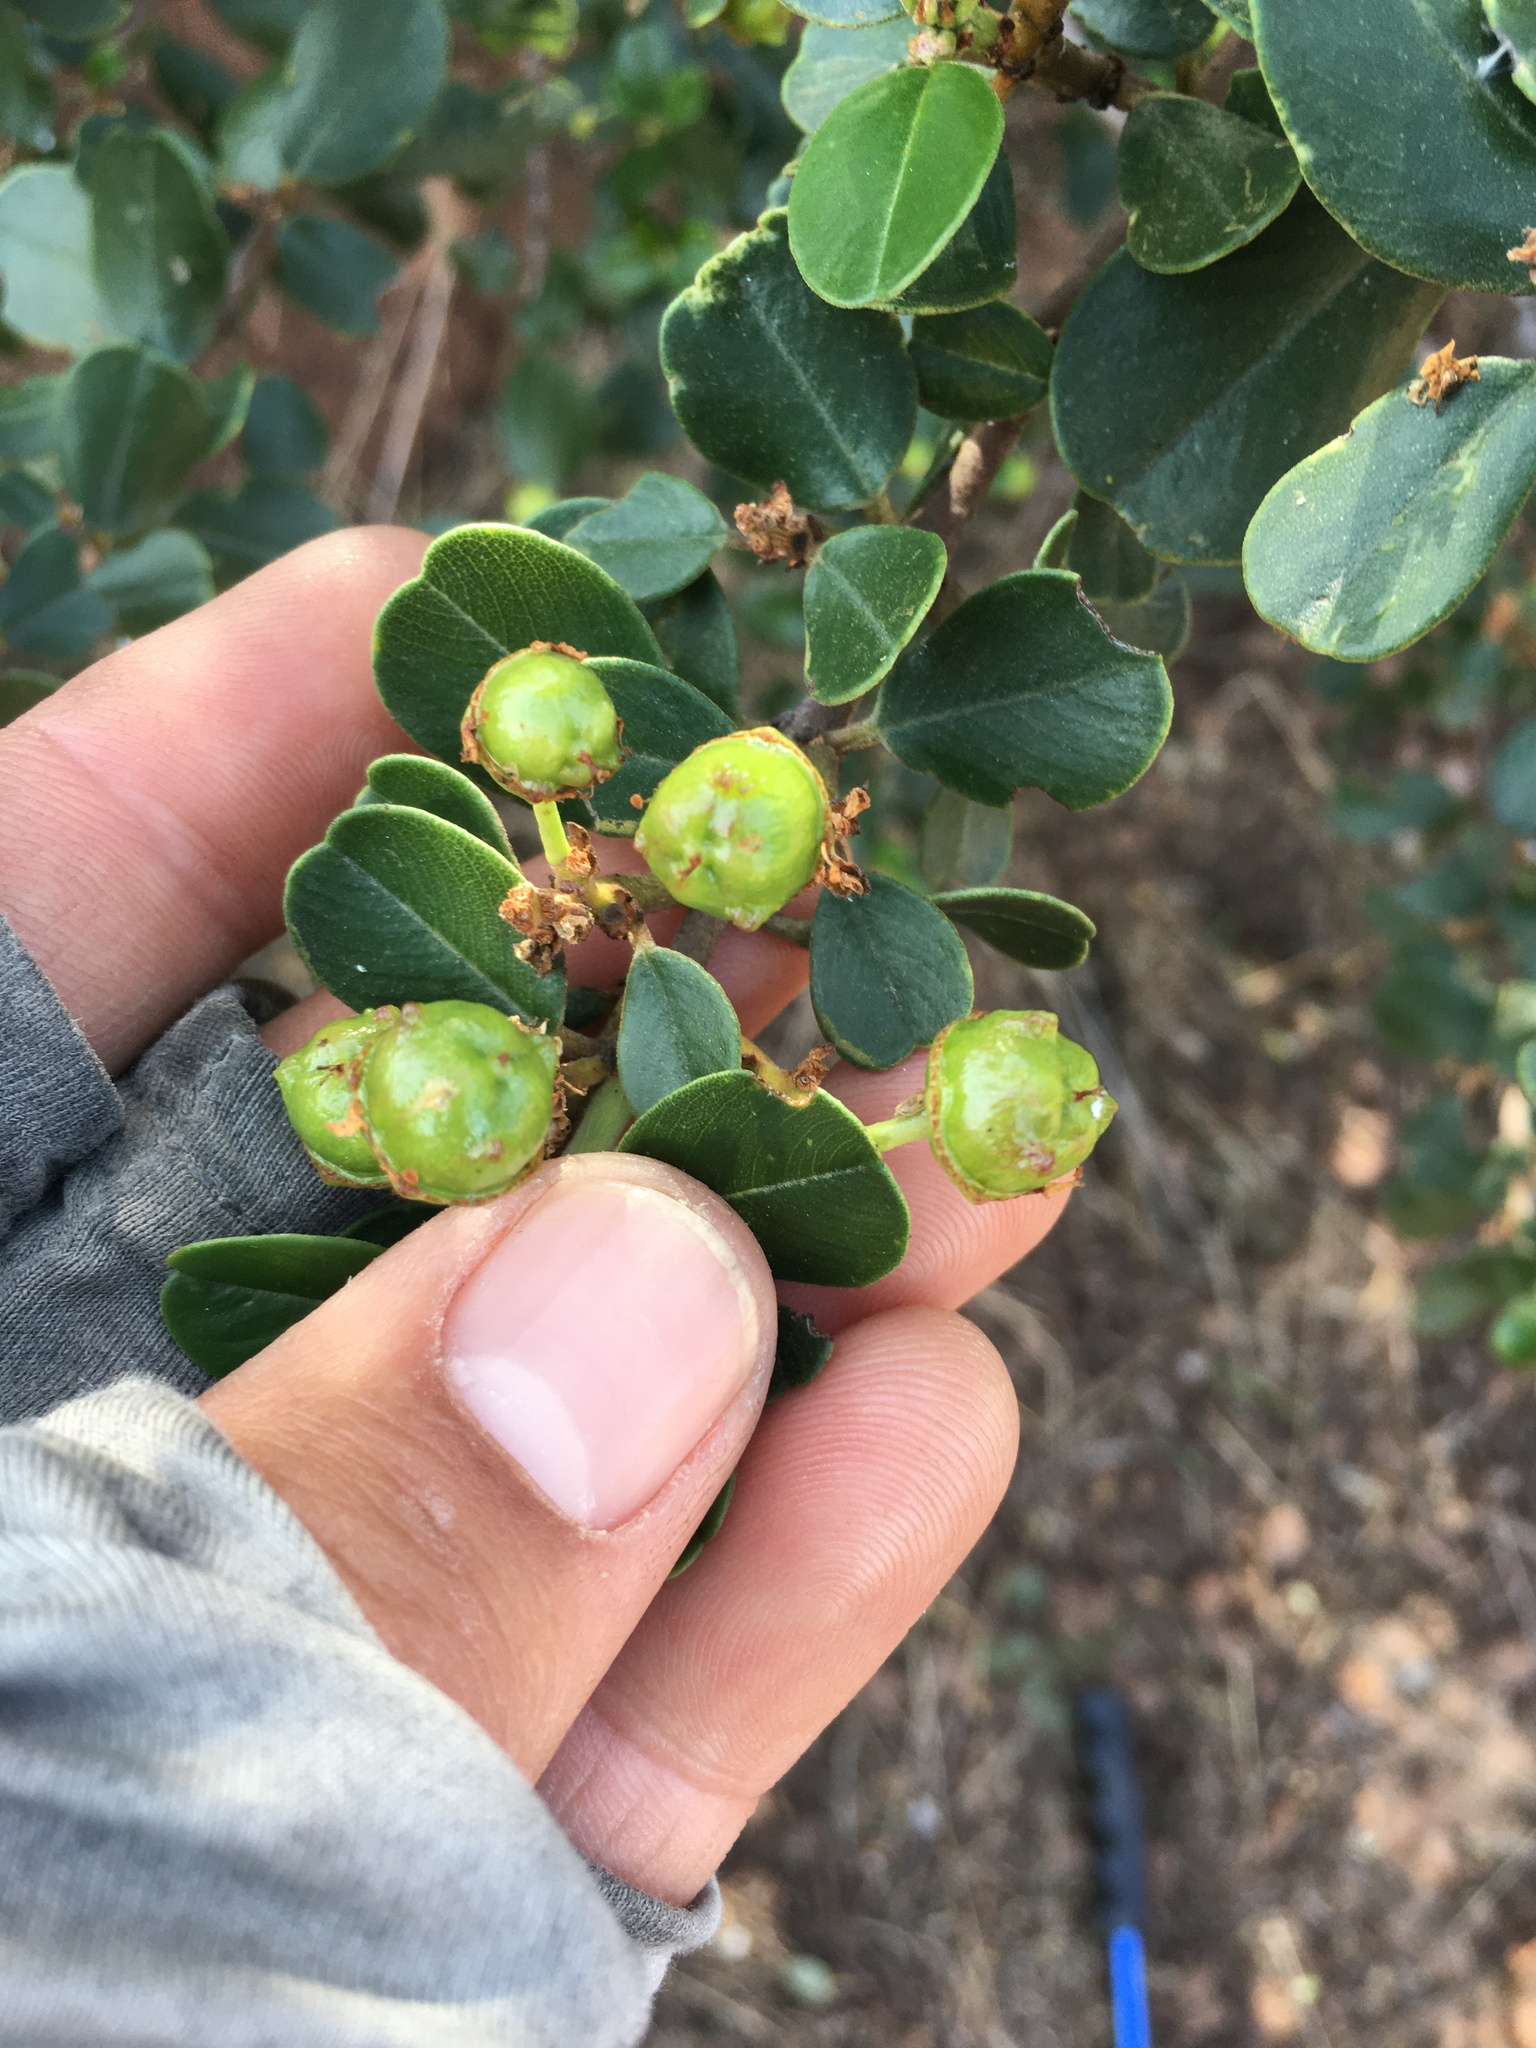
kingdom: Plantae
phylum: Tracheophyta
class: Magnoliopsida
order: Rosales
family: Rhamnaceae
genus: Ceanothus
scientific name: Ceanothus megacarpus
